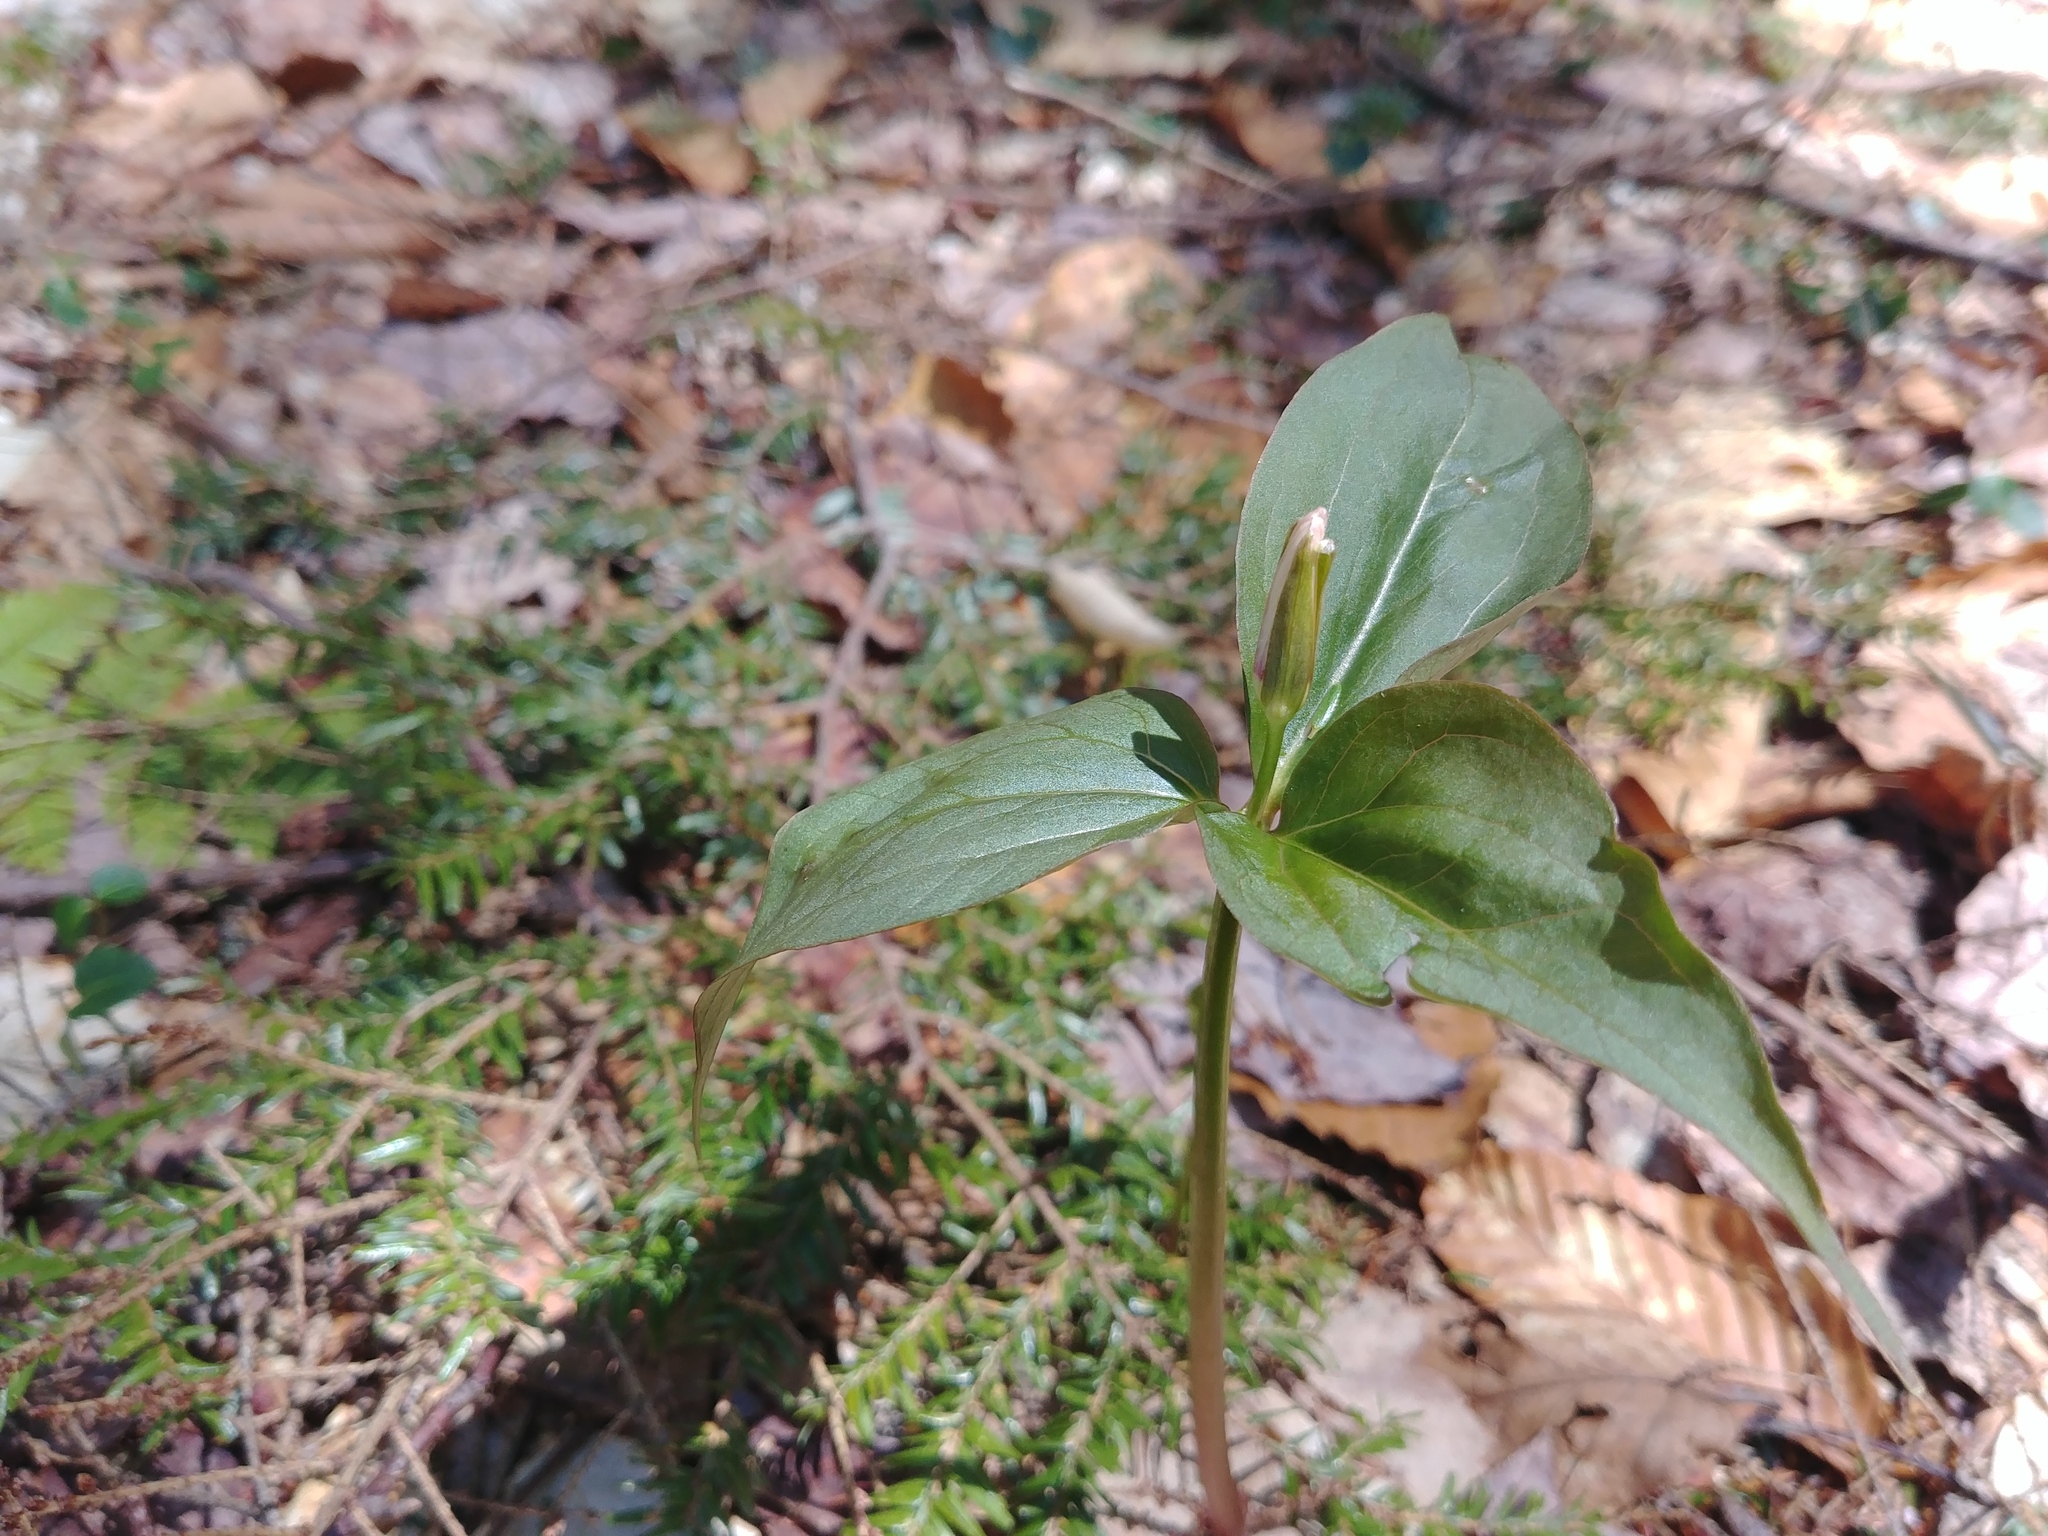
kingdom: Plantae
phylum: Tracheophyta
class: Liliopsida
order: Liliales
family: Melanthiaceae
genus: Trillium
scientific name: Trillium undulatum
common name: Paint trillium
